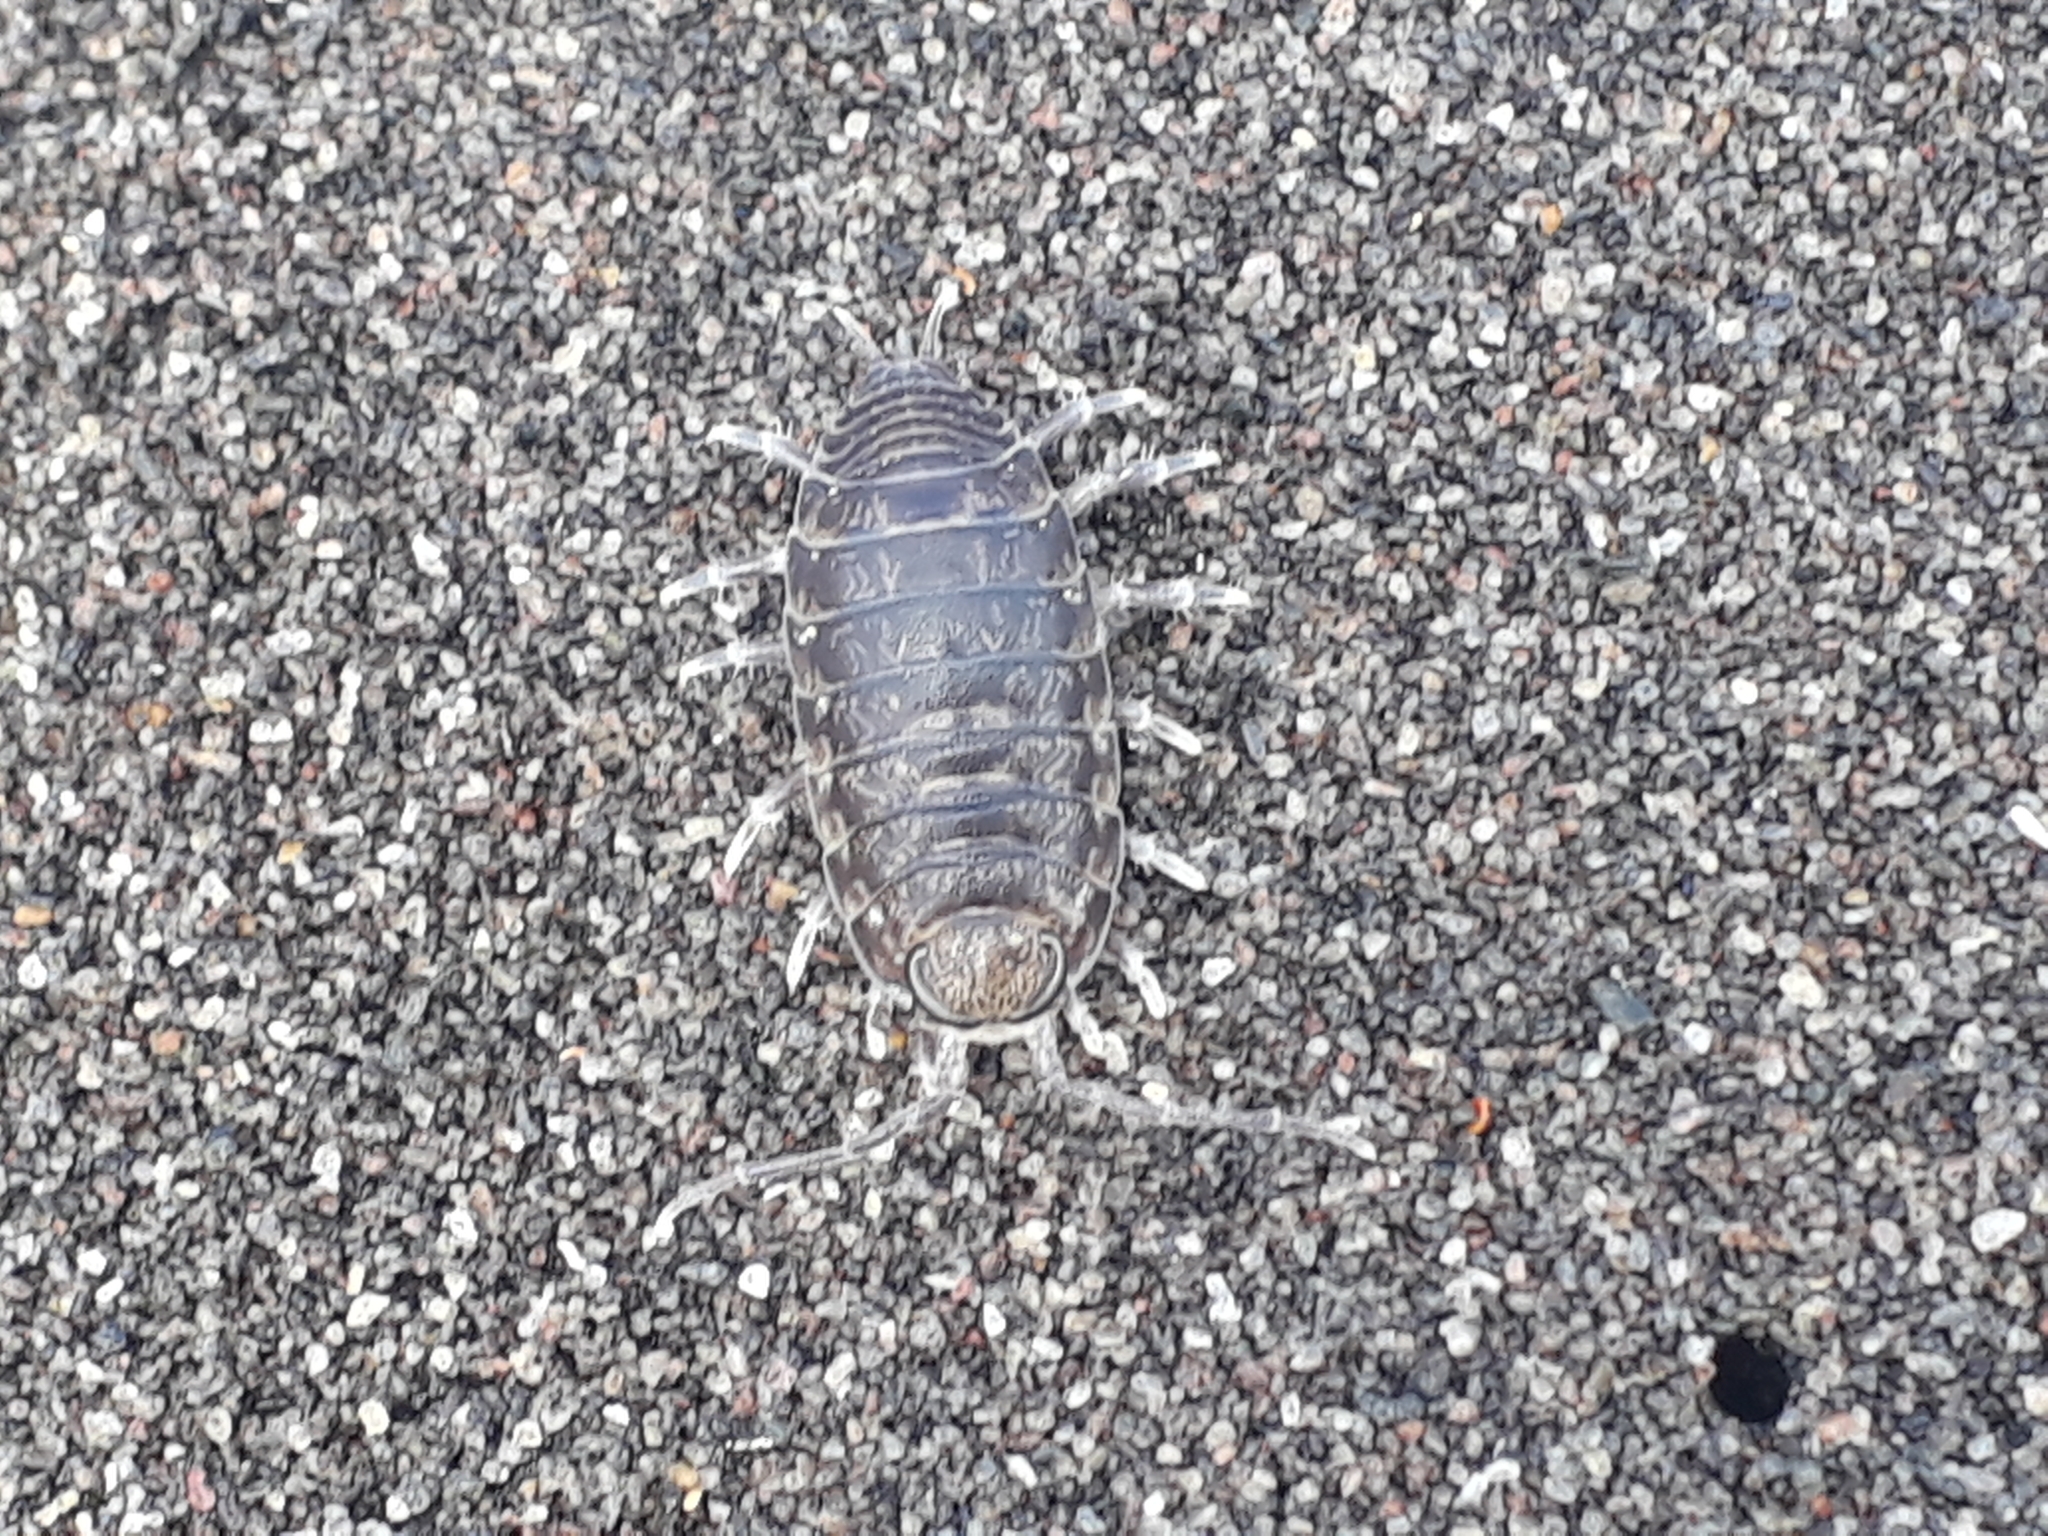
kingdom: Animalia
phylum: Arthropoda
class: Malacostraca
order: Isopoda
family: Scyphacidae
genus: Scyphax
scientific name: Scyphax ornatus
